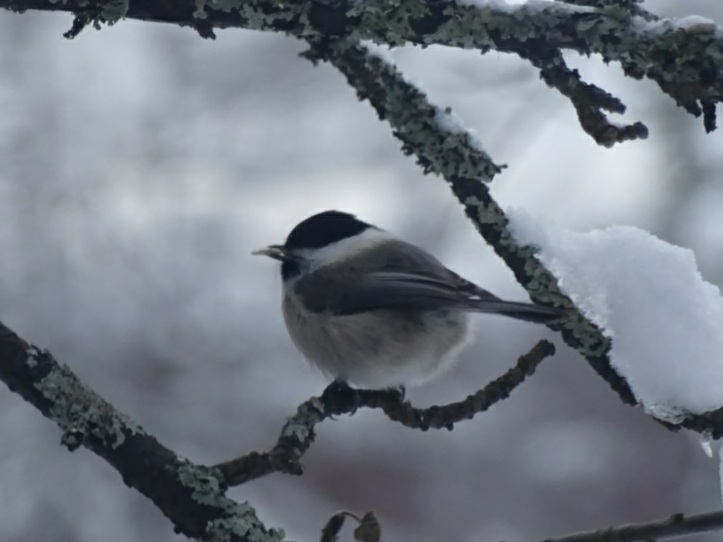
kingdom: Animalia
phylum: Chordata
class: Aves
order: Passeriformes
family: Paridae
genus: Poecile
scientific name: Poecile montanus
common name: Willow tit
